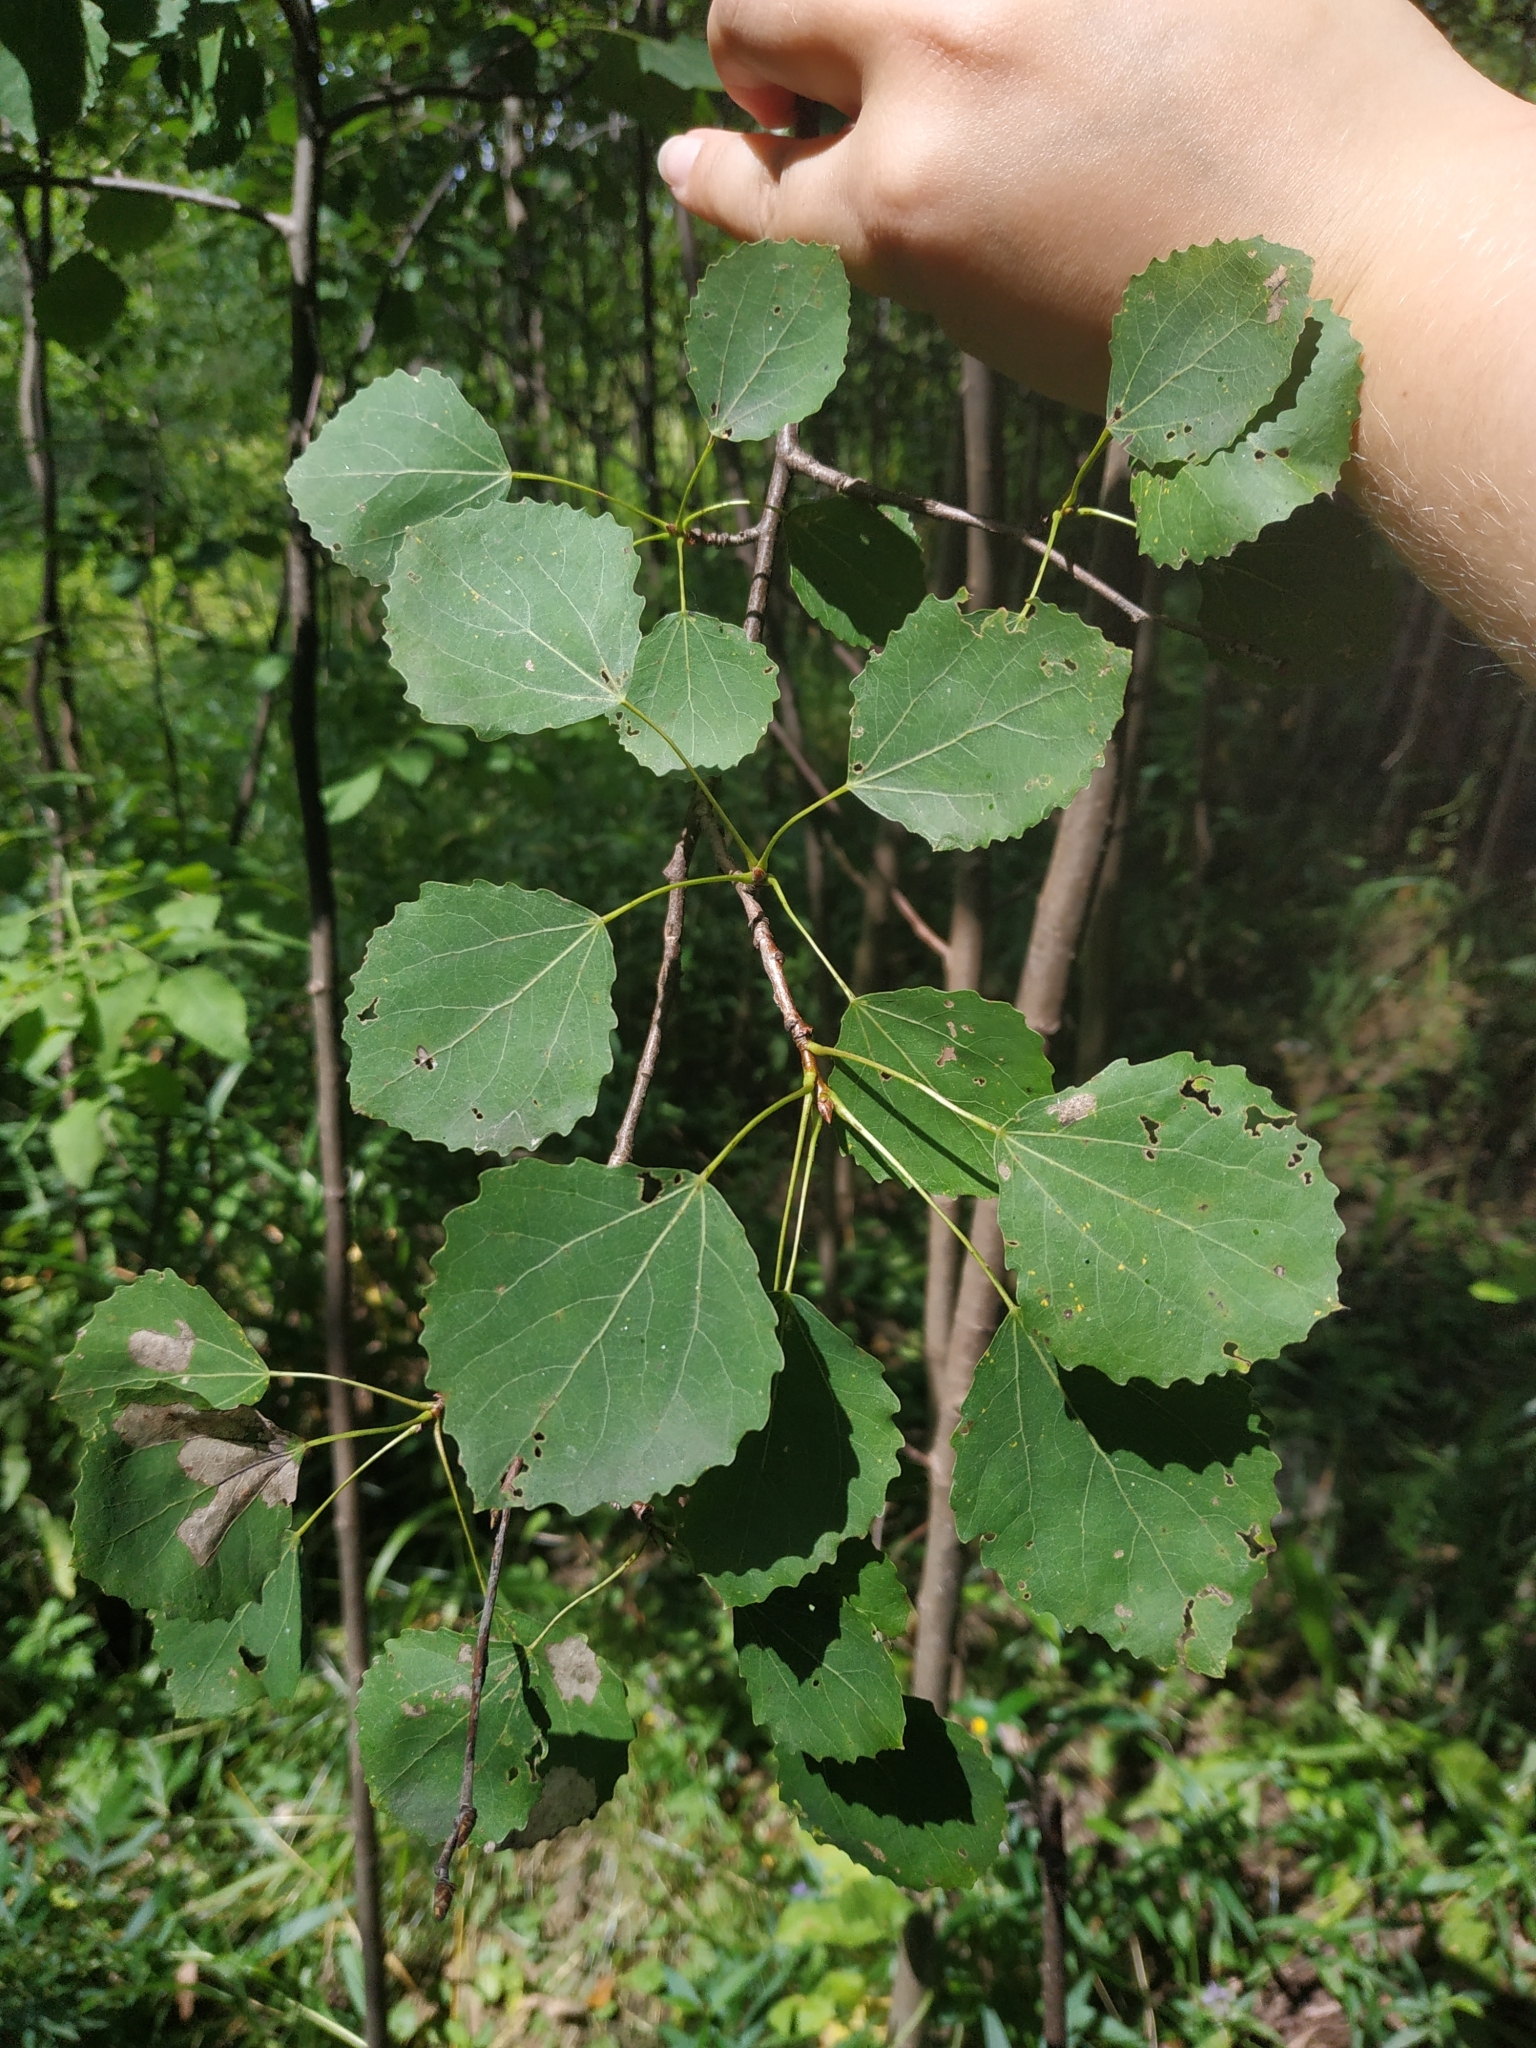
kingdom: Plantae
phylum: Tracheophyta
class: Magnoliopsida
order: Malpighiales
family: Salicaceae
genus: Populus
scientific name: Populus tremula
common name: European aspen
